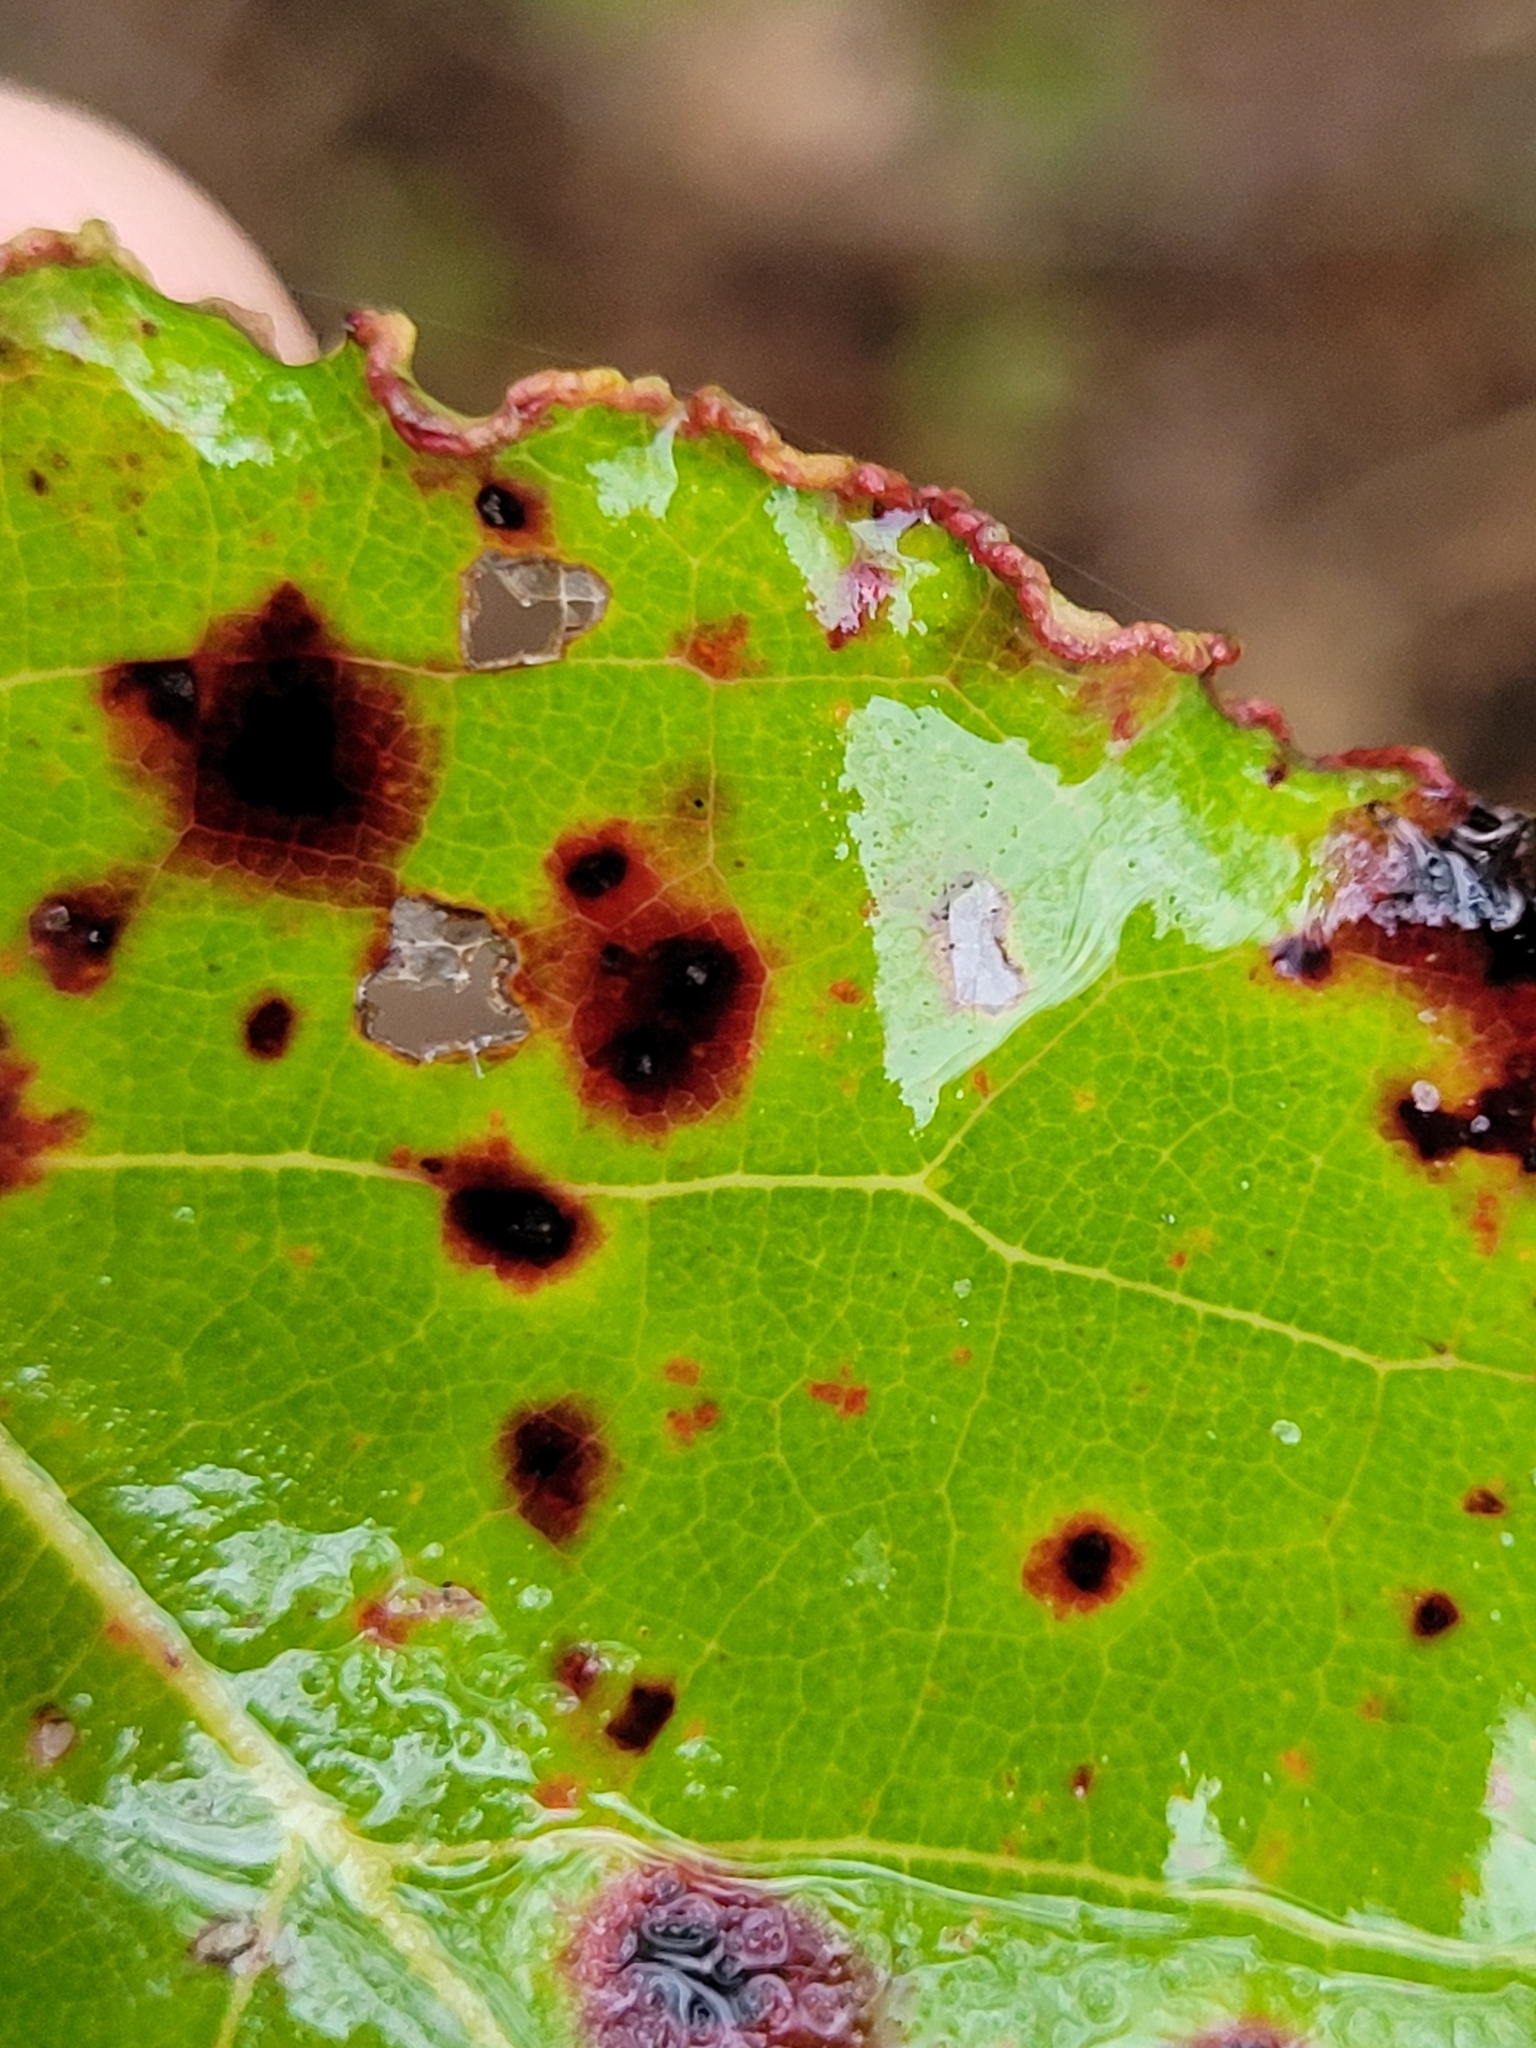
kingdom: Animalia
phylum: Arthropoda
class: Arachnida
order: Trombidiformes
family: Eriophyidae
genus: Aceria
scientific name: Aceria
